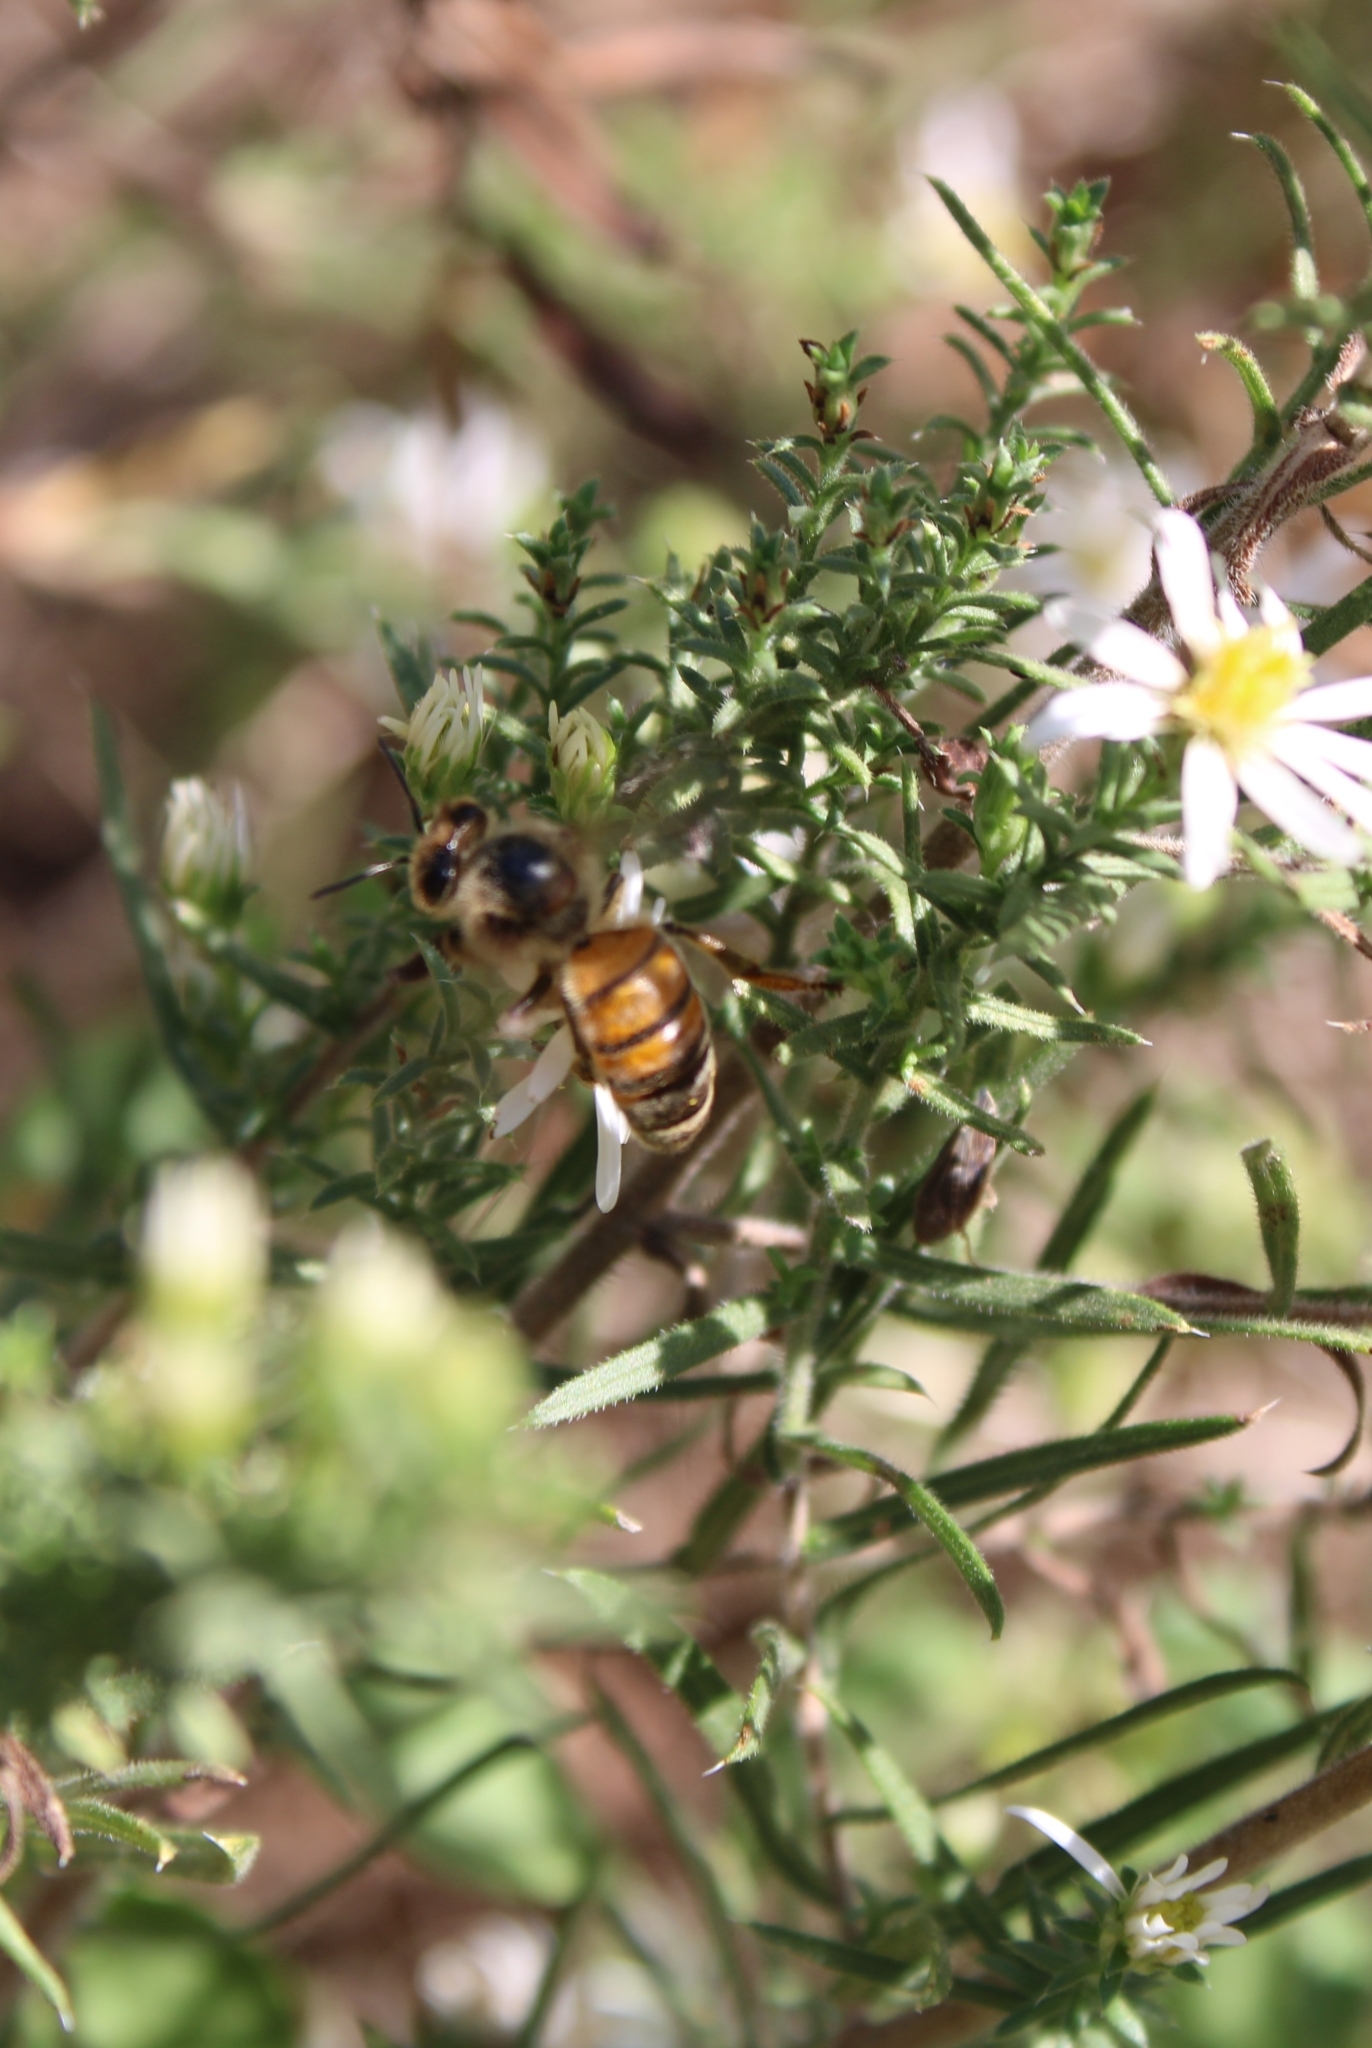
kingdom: Animalia
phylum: Arthropoda
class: Insecta
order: Hymenoptera
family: Apidae
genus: Apis
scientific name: Apis mellifera
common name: Honey bee
